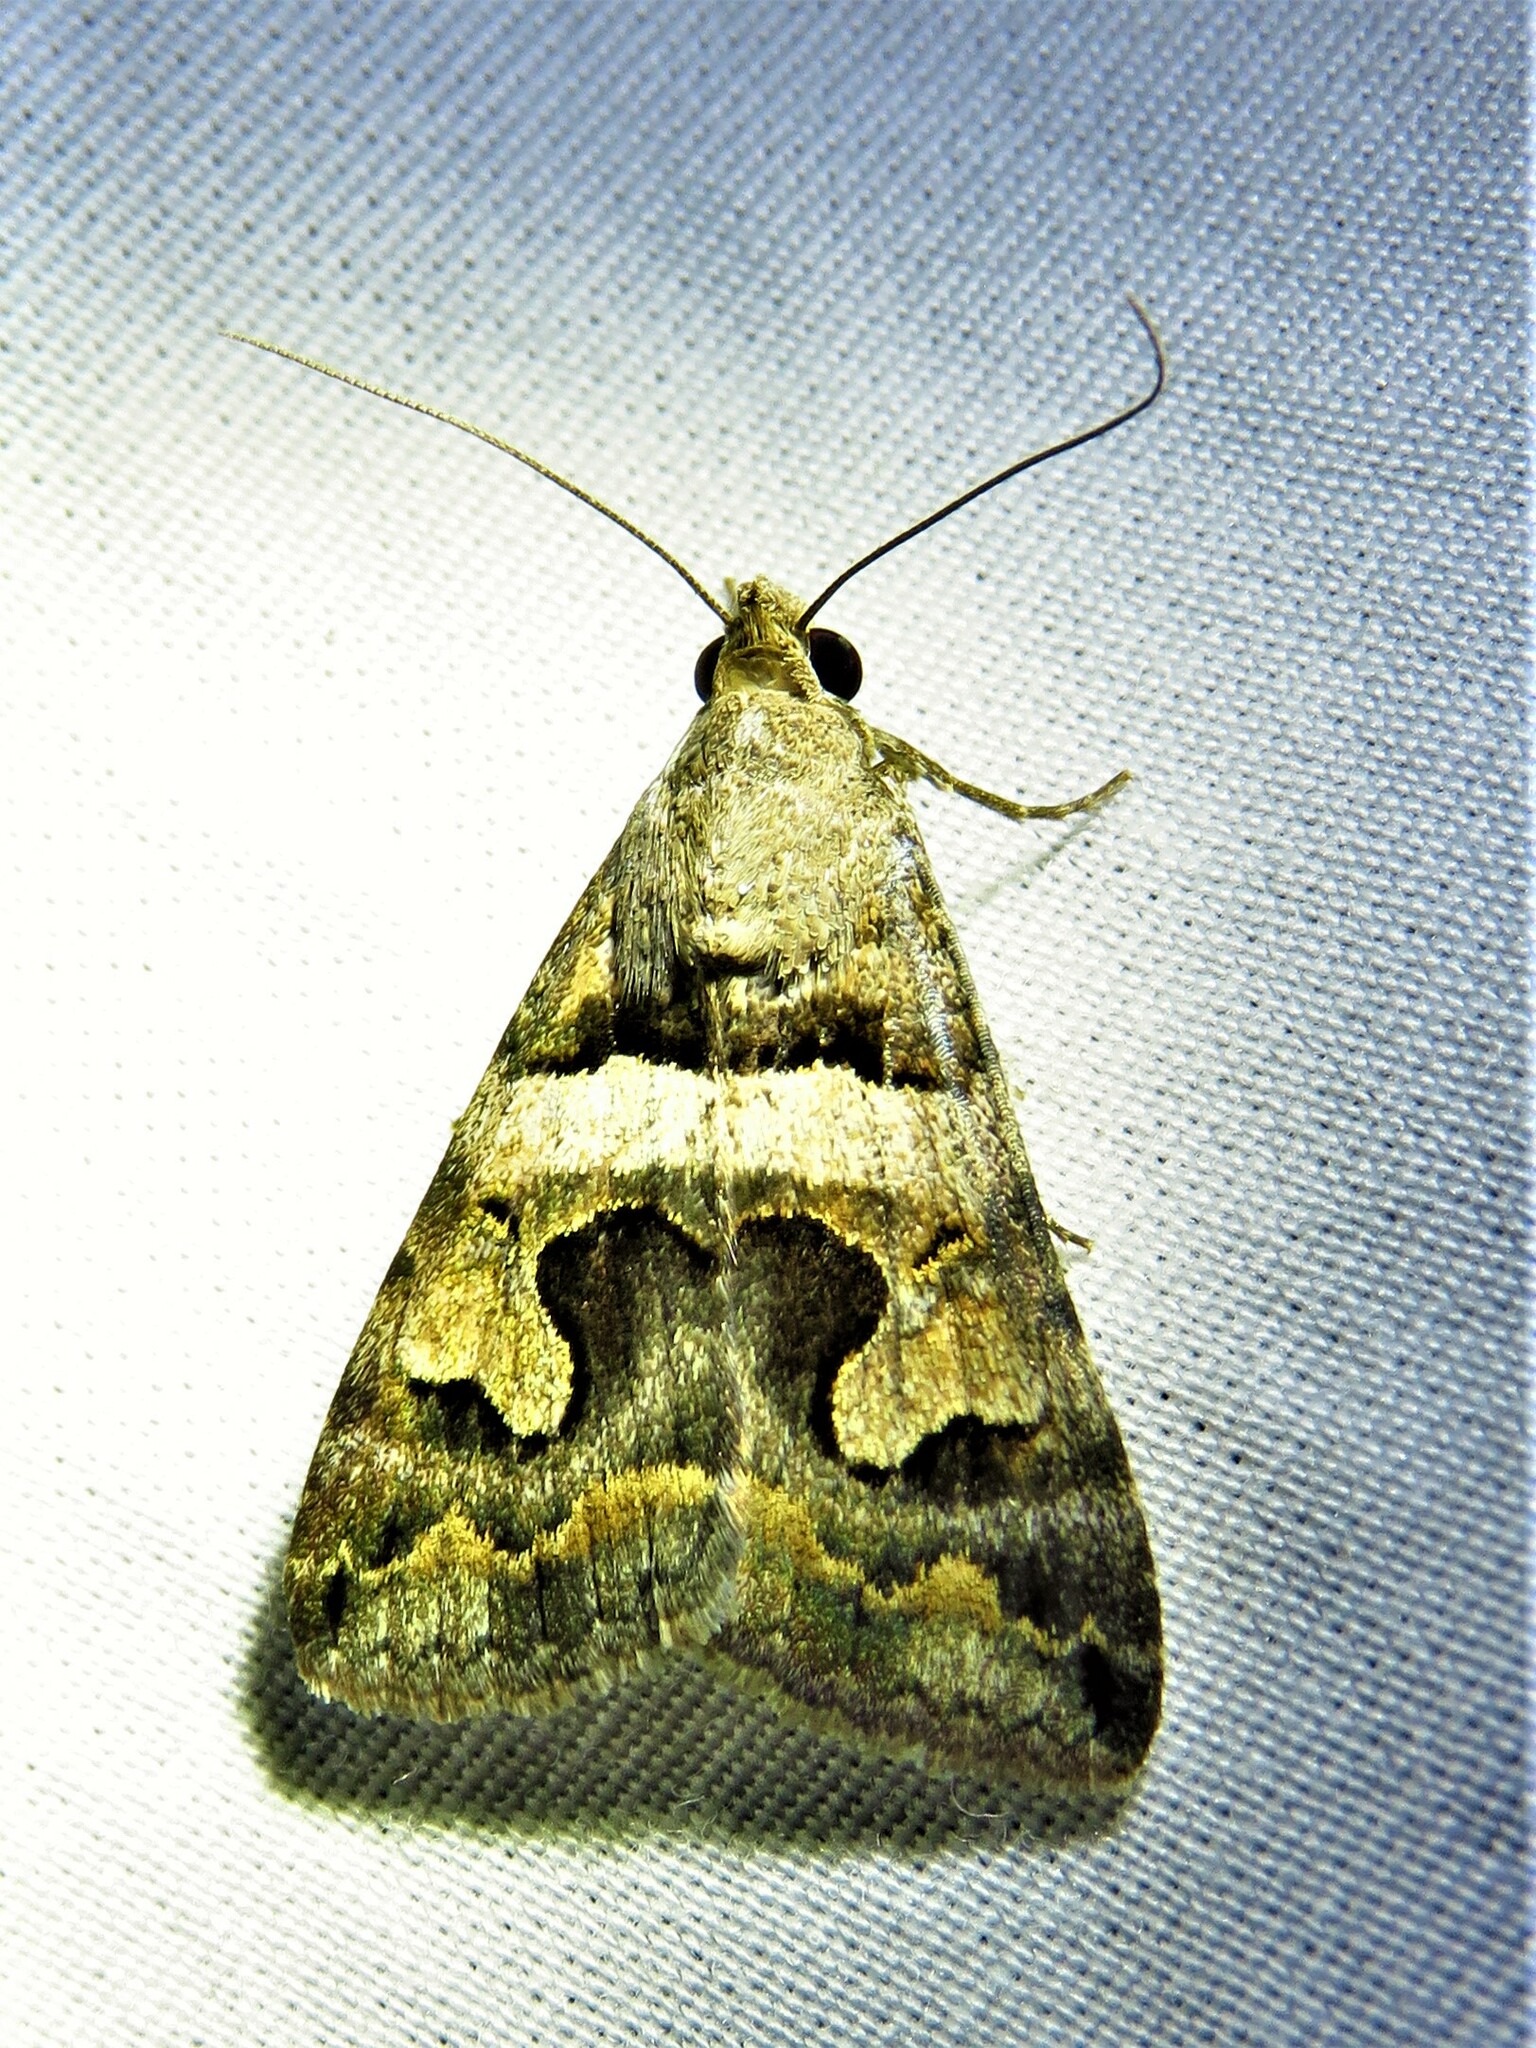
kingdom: Animalia
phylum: Arthropoda
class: Insecta
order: Lepidoptera
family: Erebidae
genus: Bulia
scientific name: Bulia deducta
